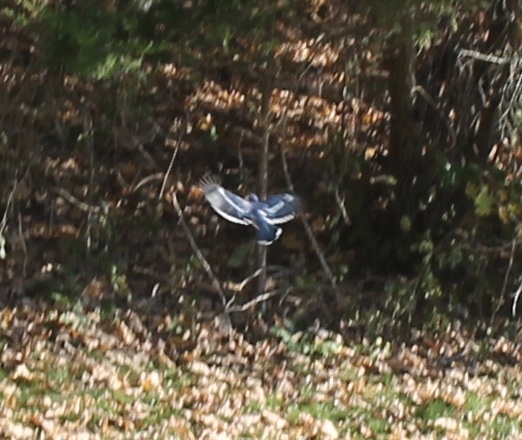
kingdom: Animalia
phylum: Chordata
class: Aves
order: Passeriformes
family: Corvidae
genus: Cyanocitta
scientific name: Cyanocitta cristata
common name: Blue jay
